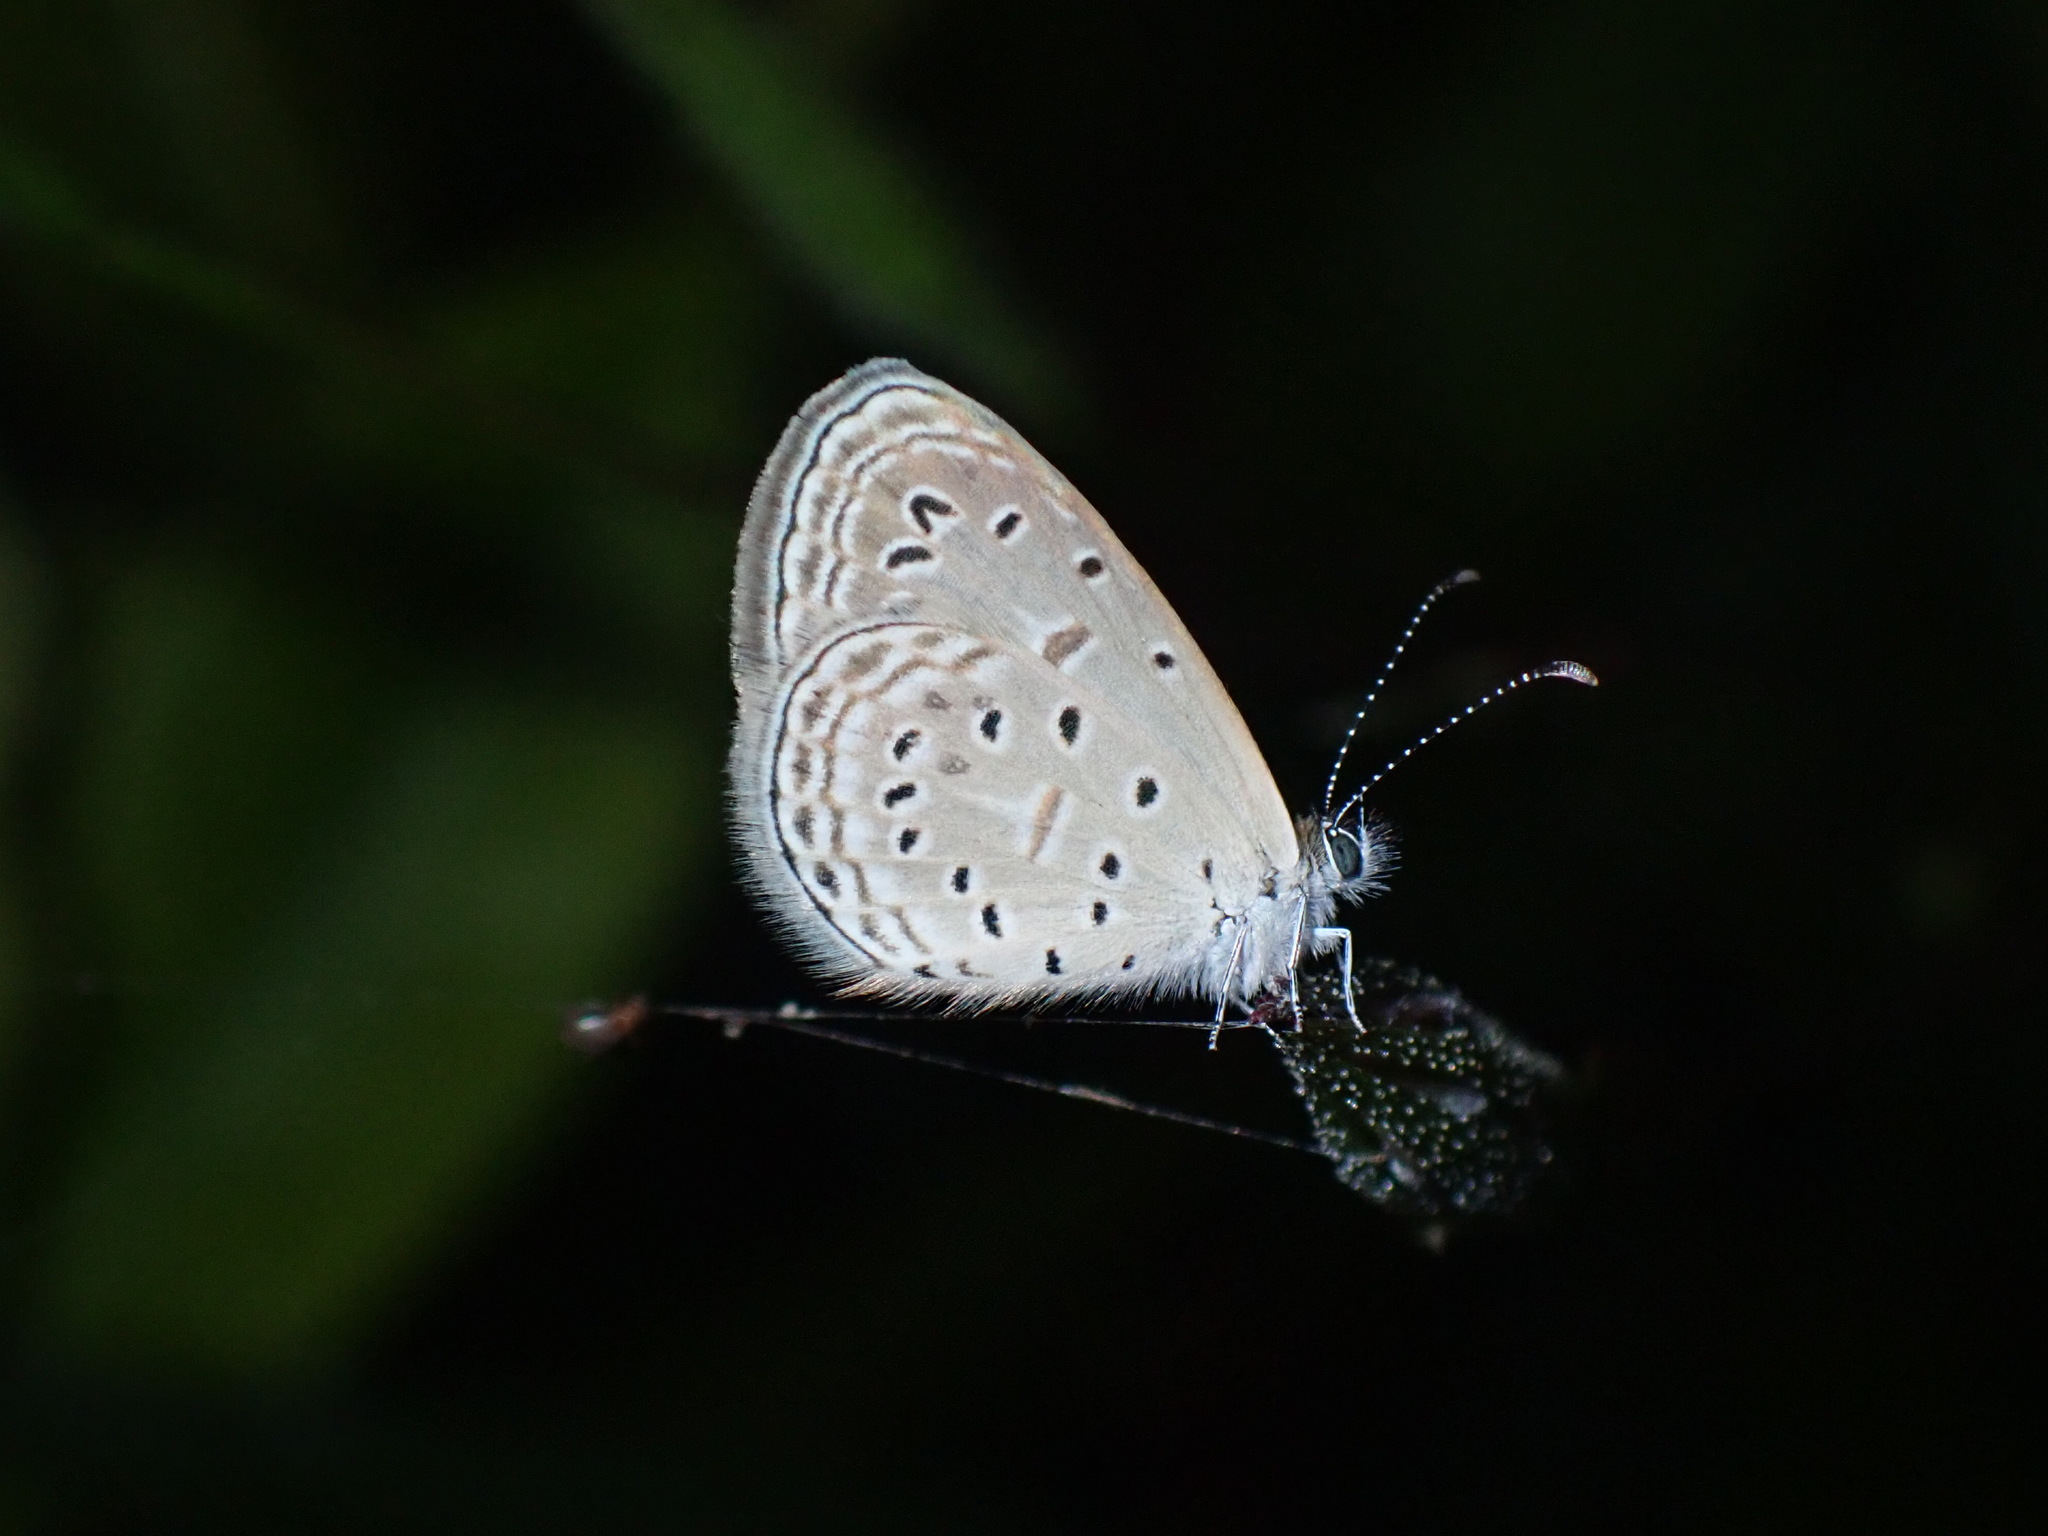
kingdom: Animalia
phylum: Arthropoda
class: Insecta
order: Lepidoptera
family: Lycaenidae
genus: Zizula
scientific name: Zizula hylax
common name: Gaika blue
